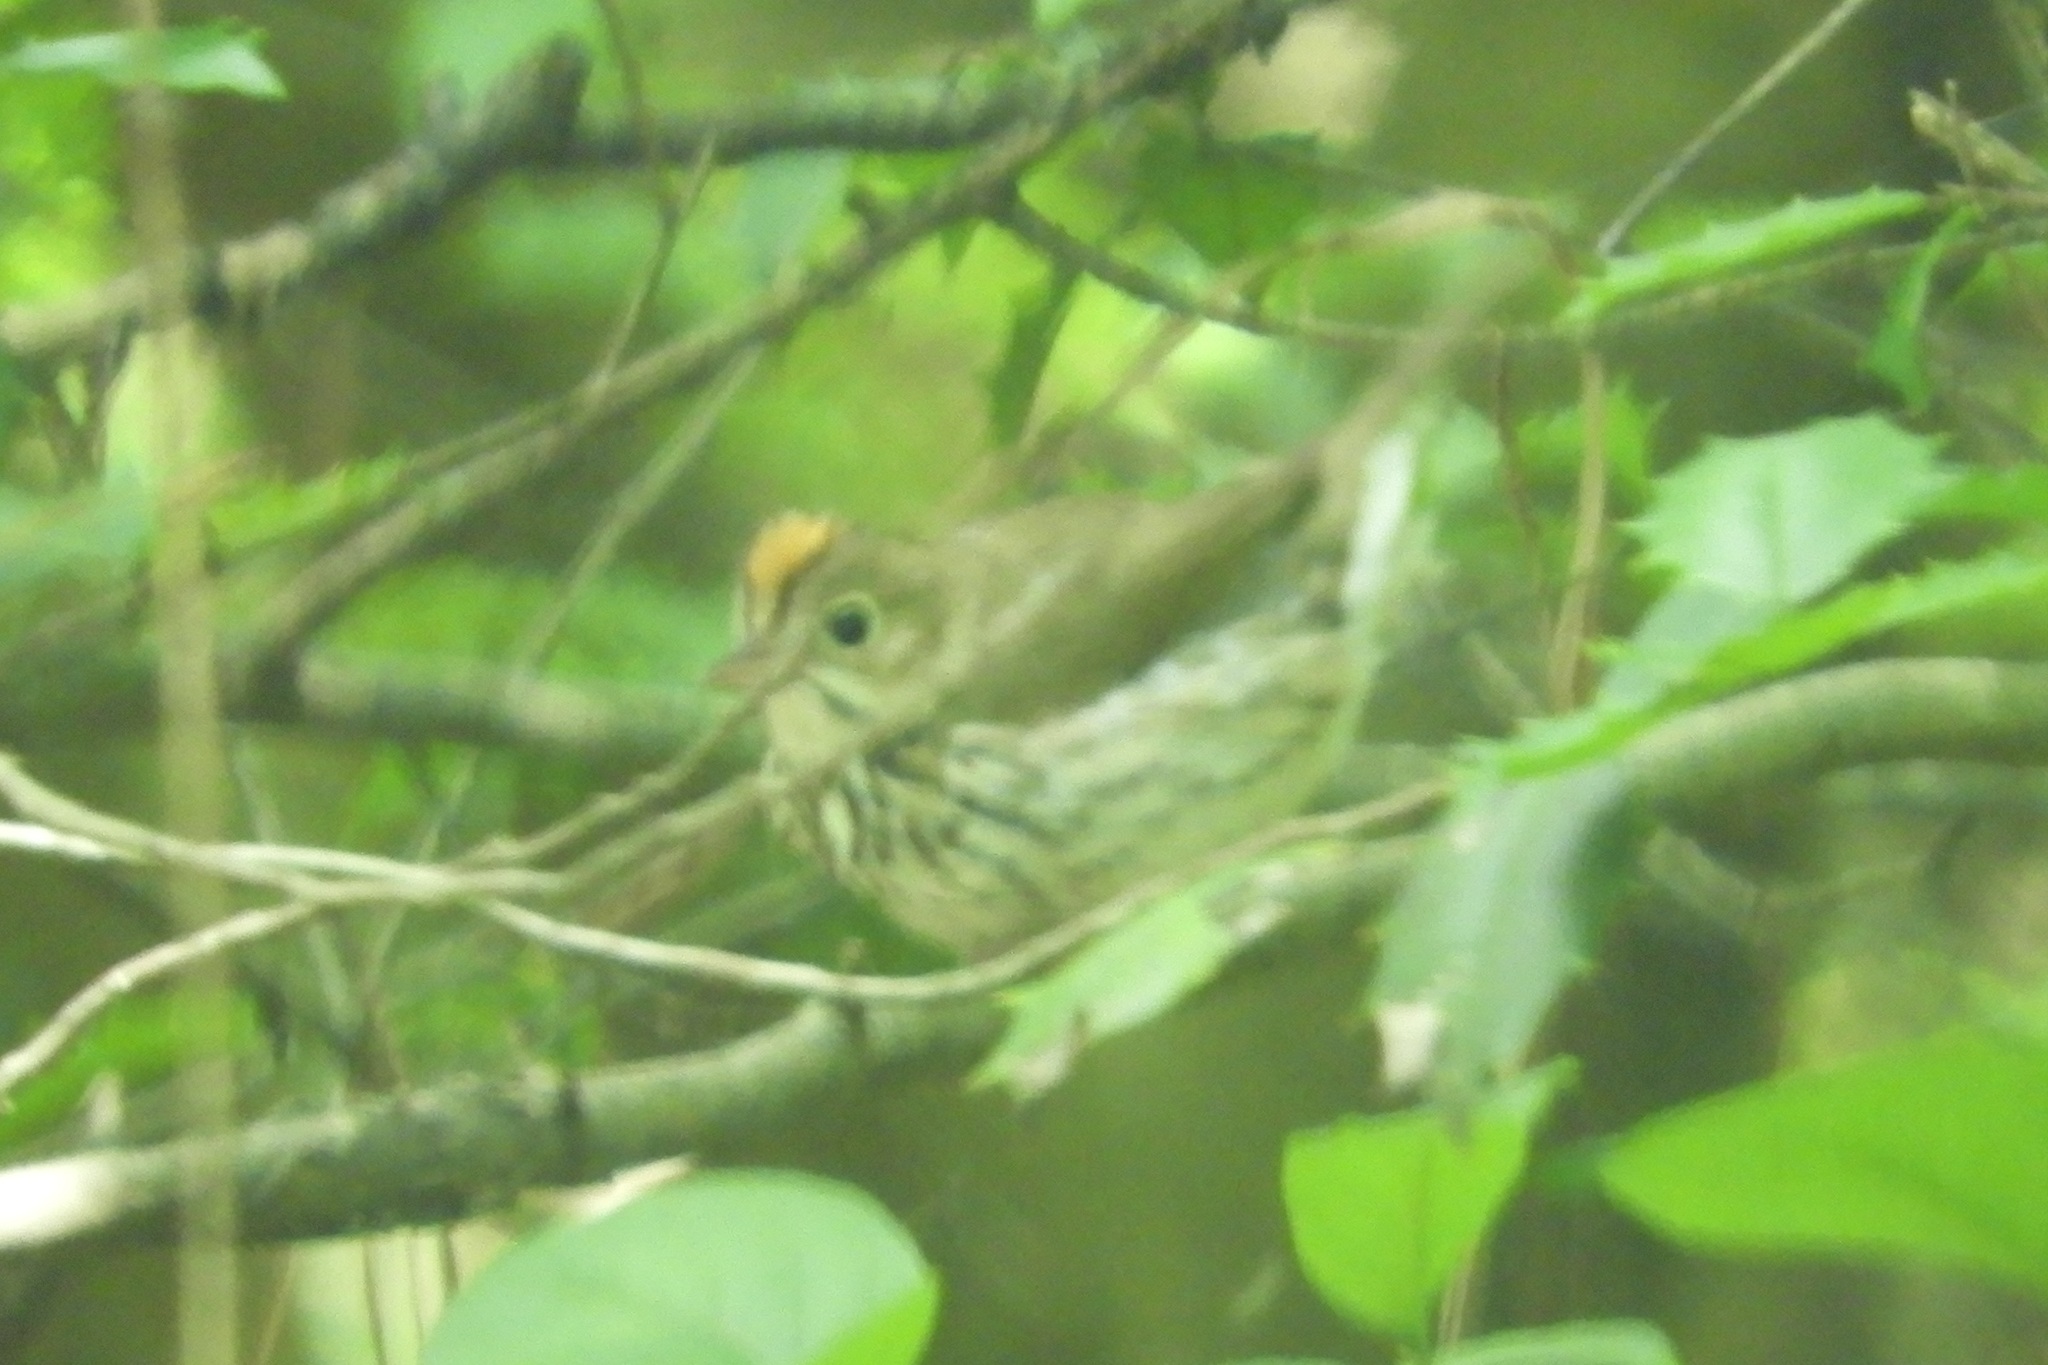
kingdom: Animalia
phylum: Chordata
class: Aves
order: Passeriformes
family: Parulidae
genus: Seiurus
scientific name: Seiurus aurocapilla
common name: Ovenbird
